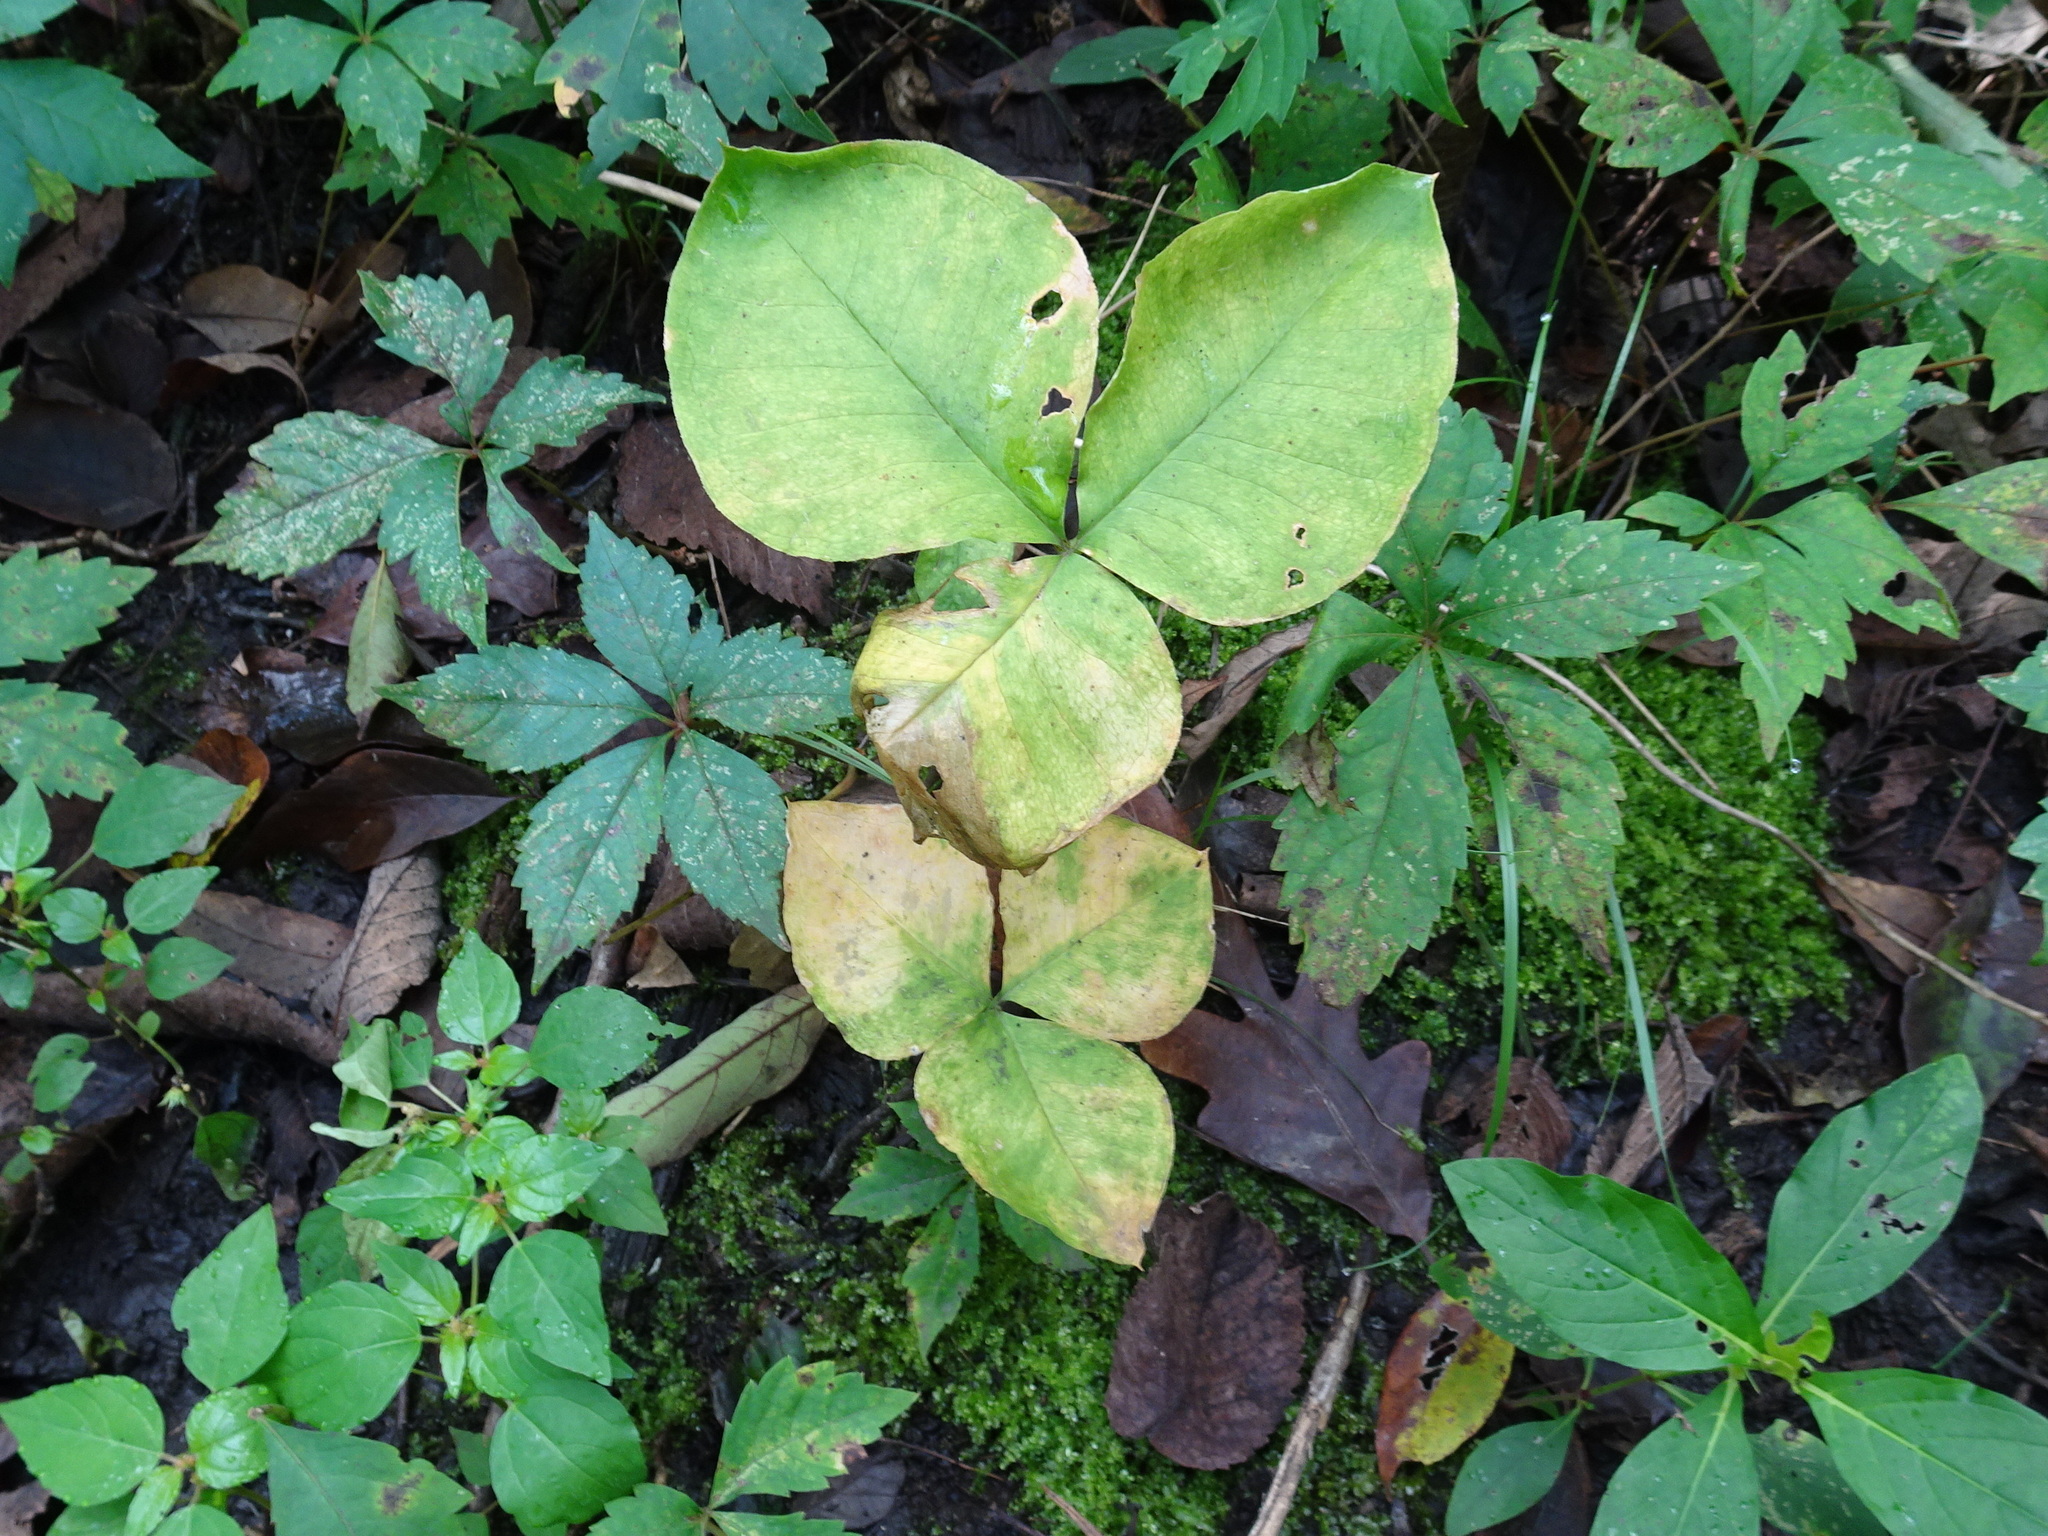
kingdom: Plantae
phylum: Tracheophyta
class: Liliopsida
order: Alismatales
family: Araceae
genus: Arisaema
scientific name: Arisaema triphyllum
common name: Jack-in-the-pulpit
